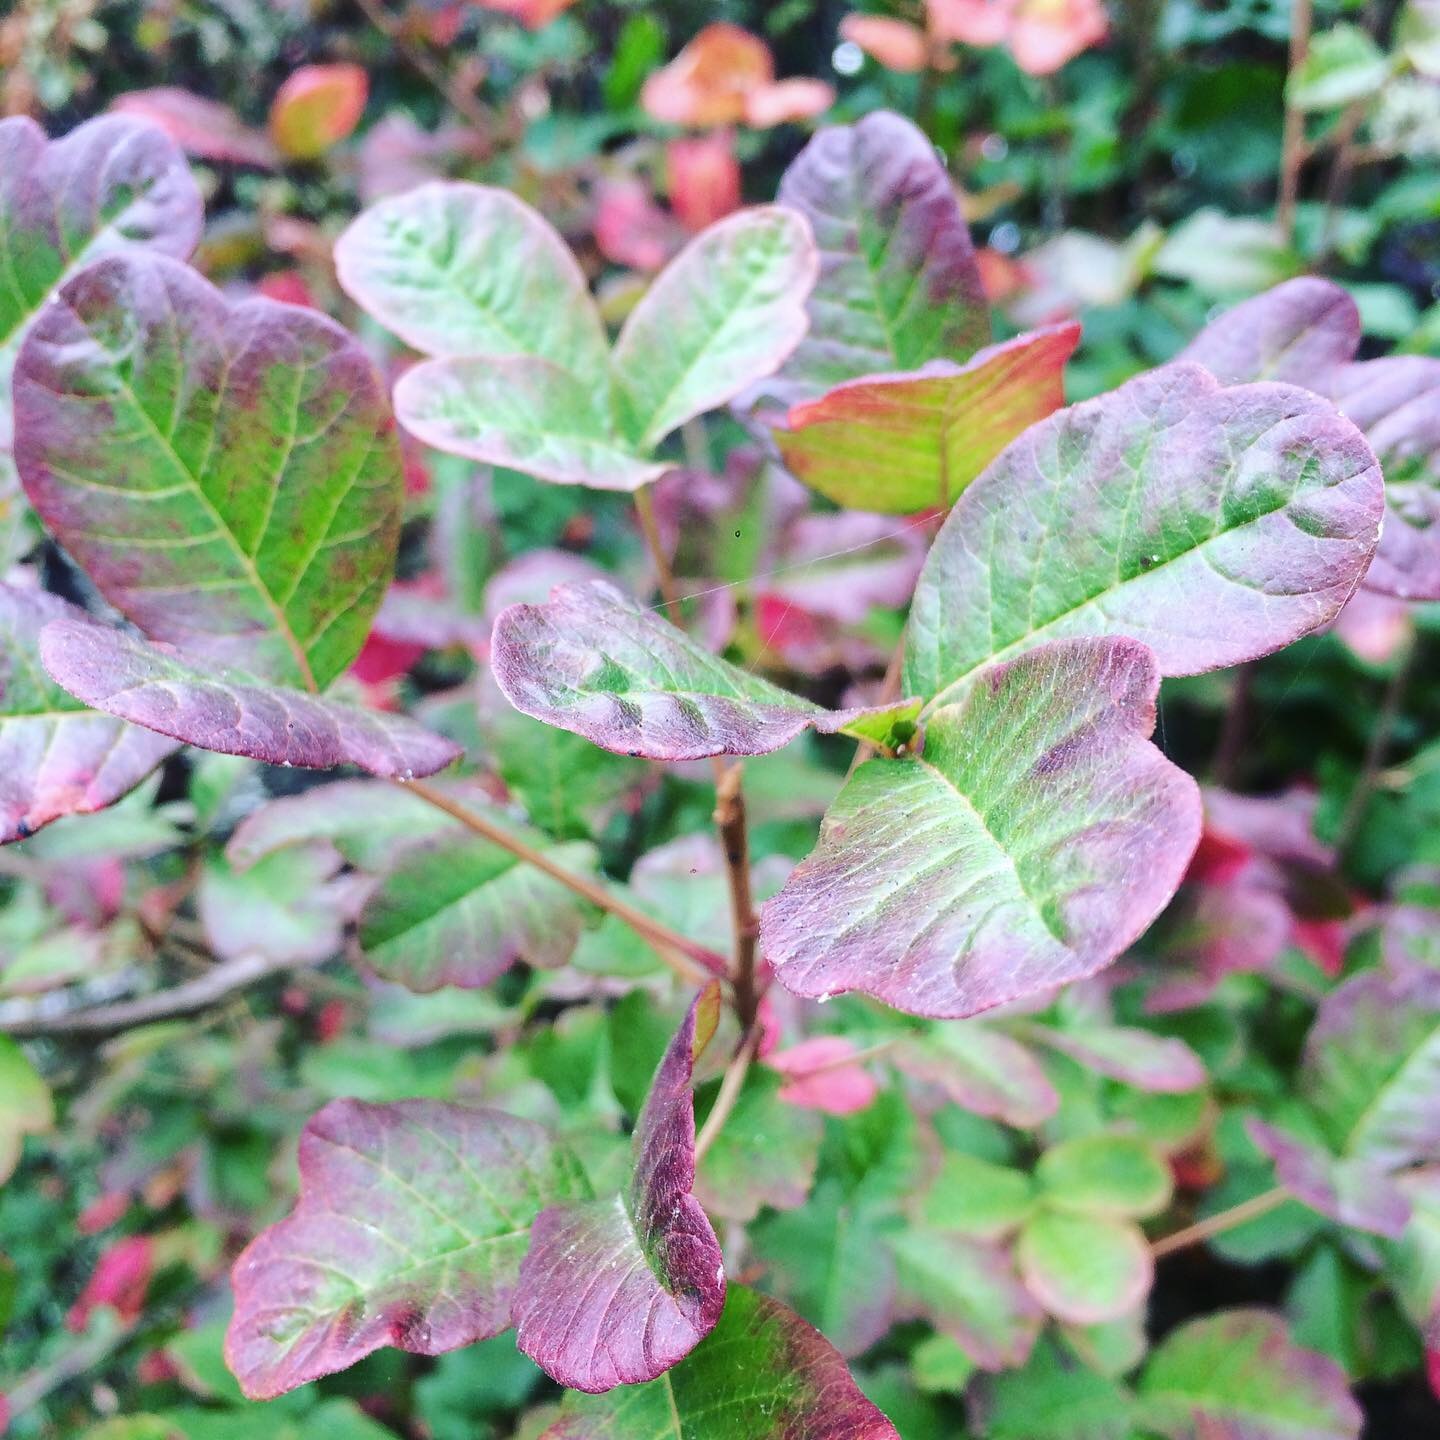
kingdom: Plantae
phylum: Tracheophyta
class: Magnoliopsida
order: Sapindales
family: Anacardiaceae
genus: Toxicodendron
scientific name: Toxicodendron diversilobum
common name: Pacific poison-oak
